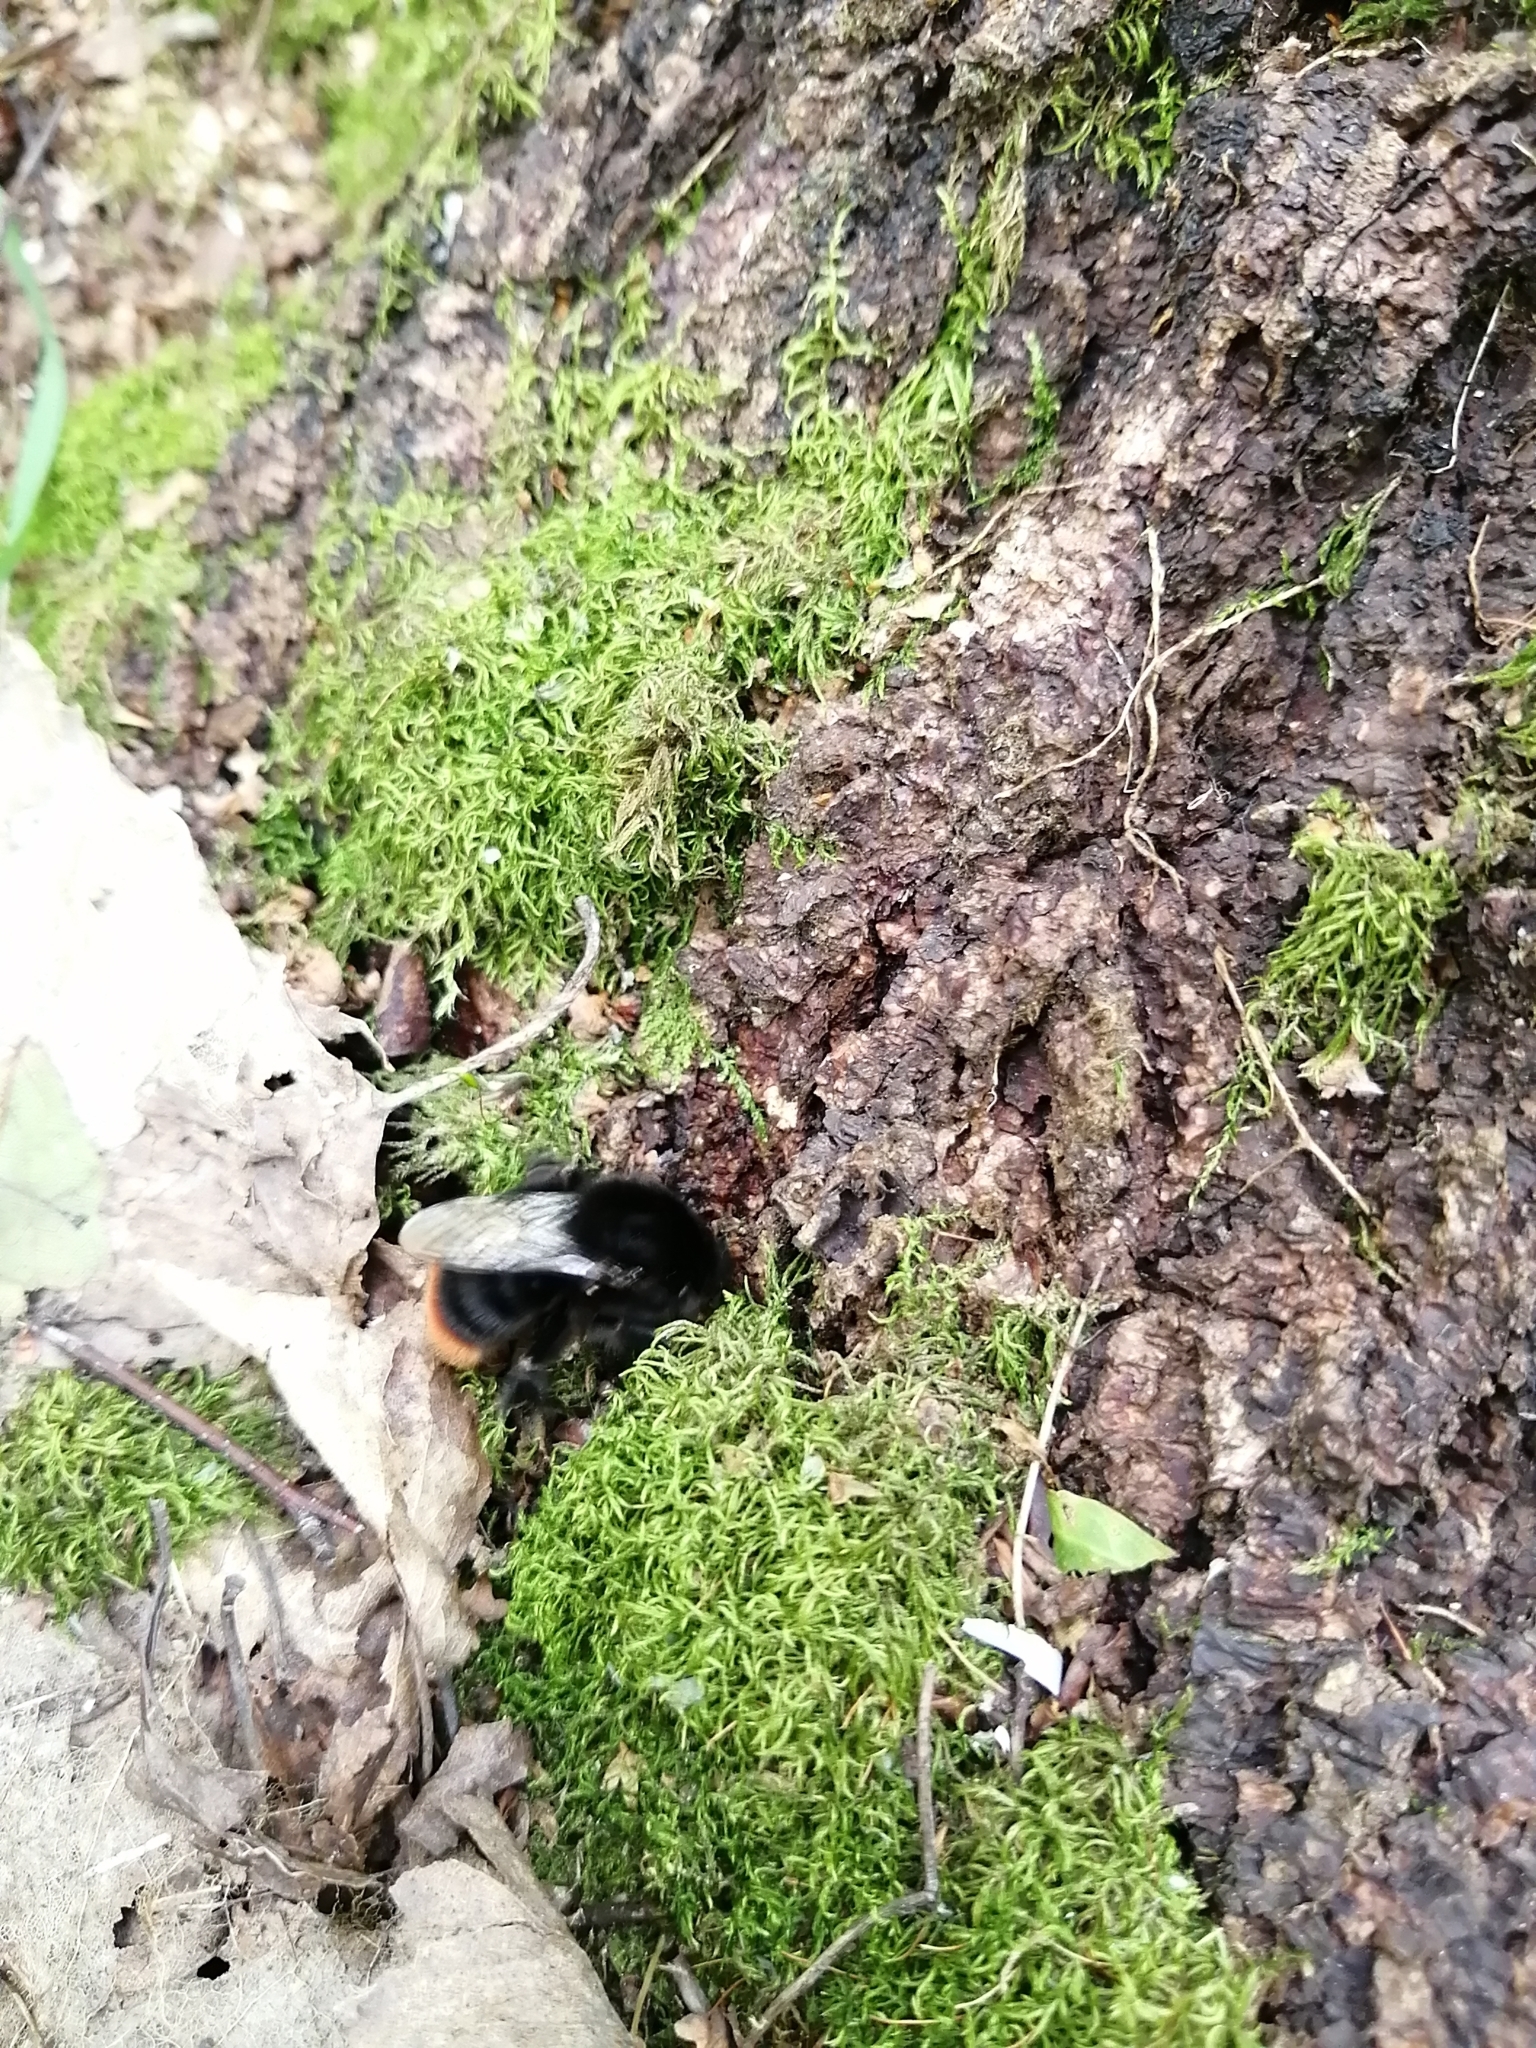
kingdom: Animalia
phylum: Arthropoda
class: Insecta
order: Hymenoptera
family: Apidae
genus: Bombus
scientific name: Bombus lapidarius
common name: Large red-tailed humble-bee
